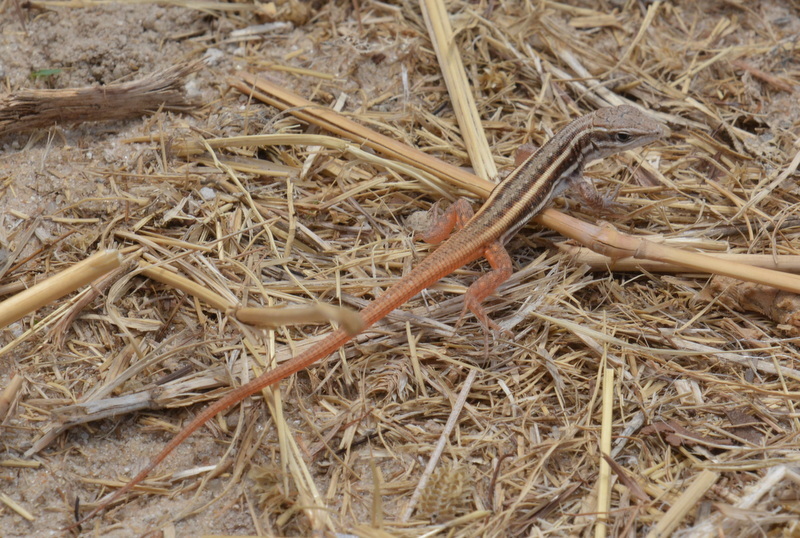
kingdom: Animalia
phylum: Chordata
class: Squamata
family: Lacertidae
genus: Meroles
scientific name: Meroles squamulosus
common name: Common desert lizard
